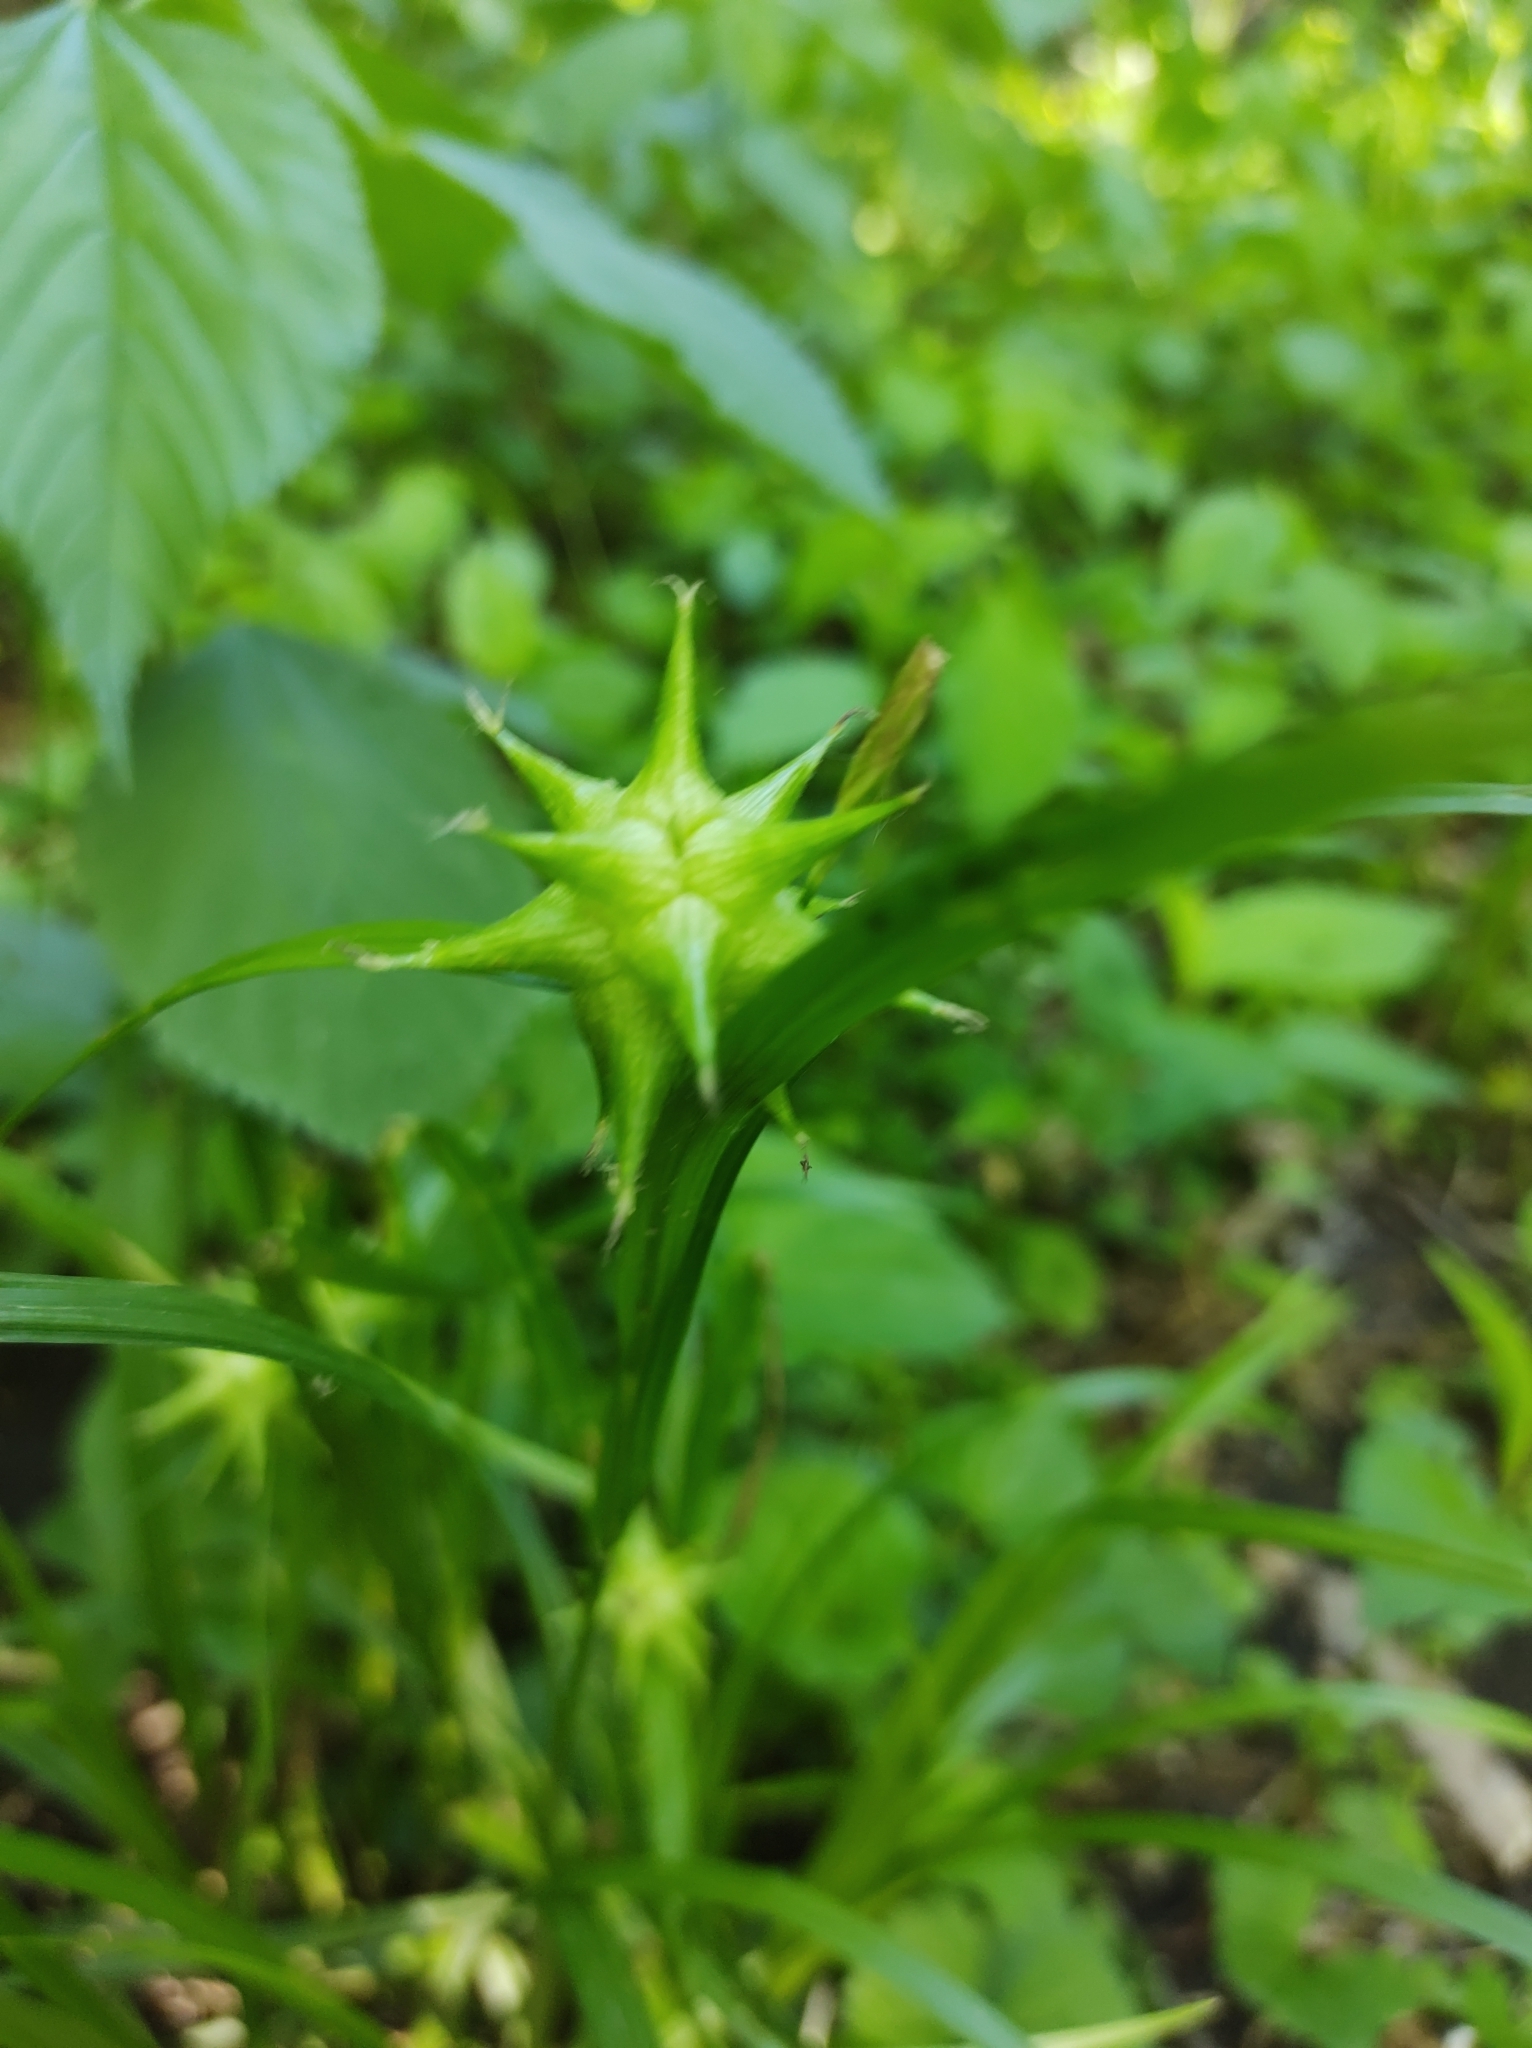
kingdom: Plantae
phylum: Tracheophyta
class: Liliopsida
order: Poales
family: Cyperaceae
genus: Carex
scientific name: Carex grayi
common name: Asa gray's sedge
